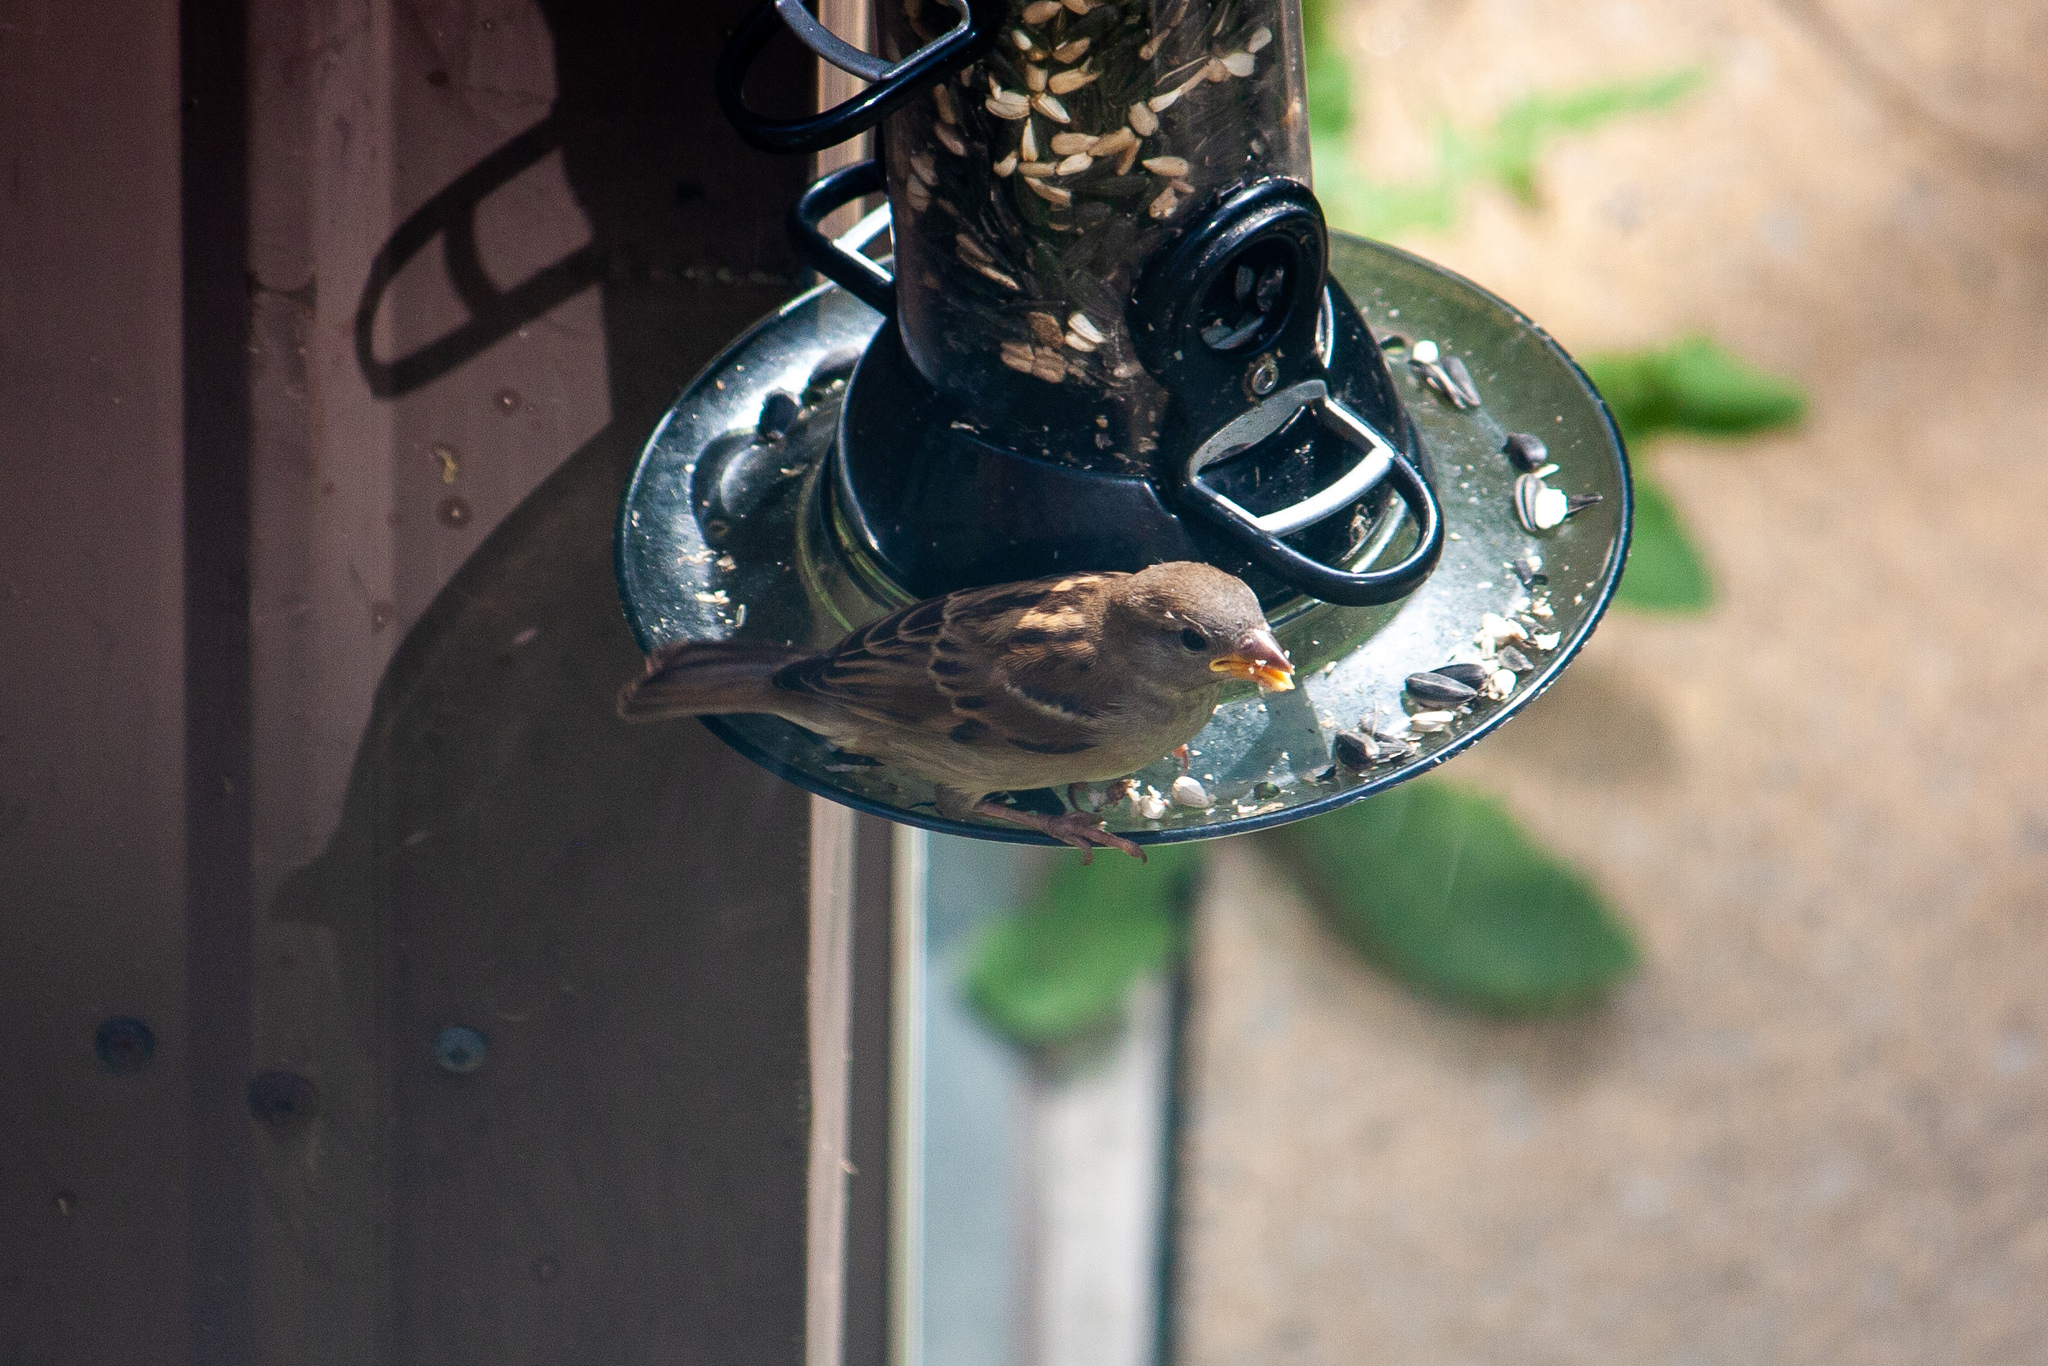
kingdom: Animalia
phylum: Chordata
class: Aves
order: Passeriformes
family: Passeridae
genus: Passer
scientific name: Passer domesticus
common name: House sparrow
